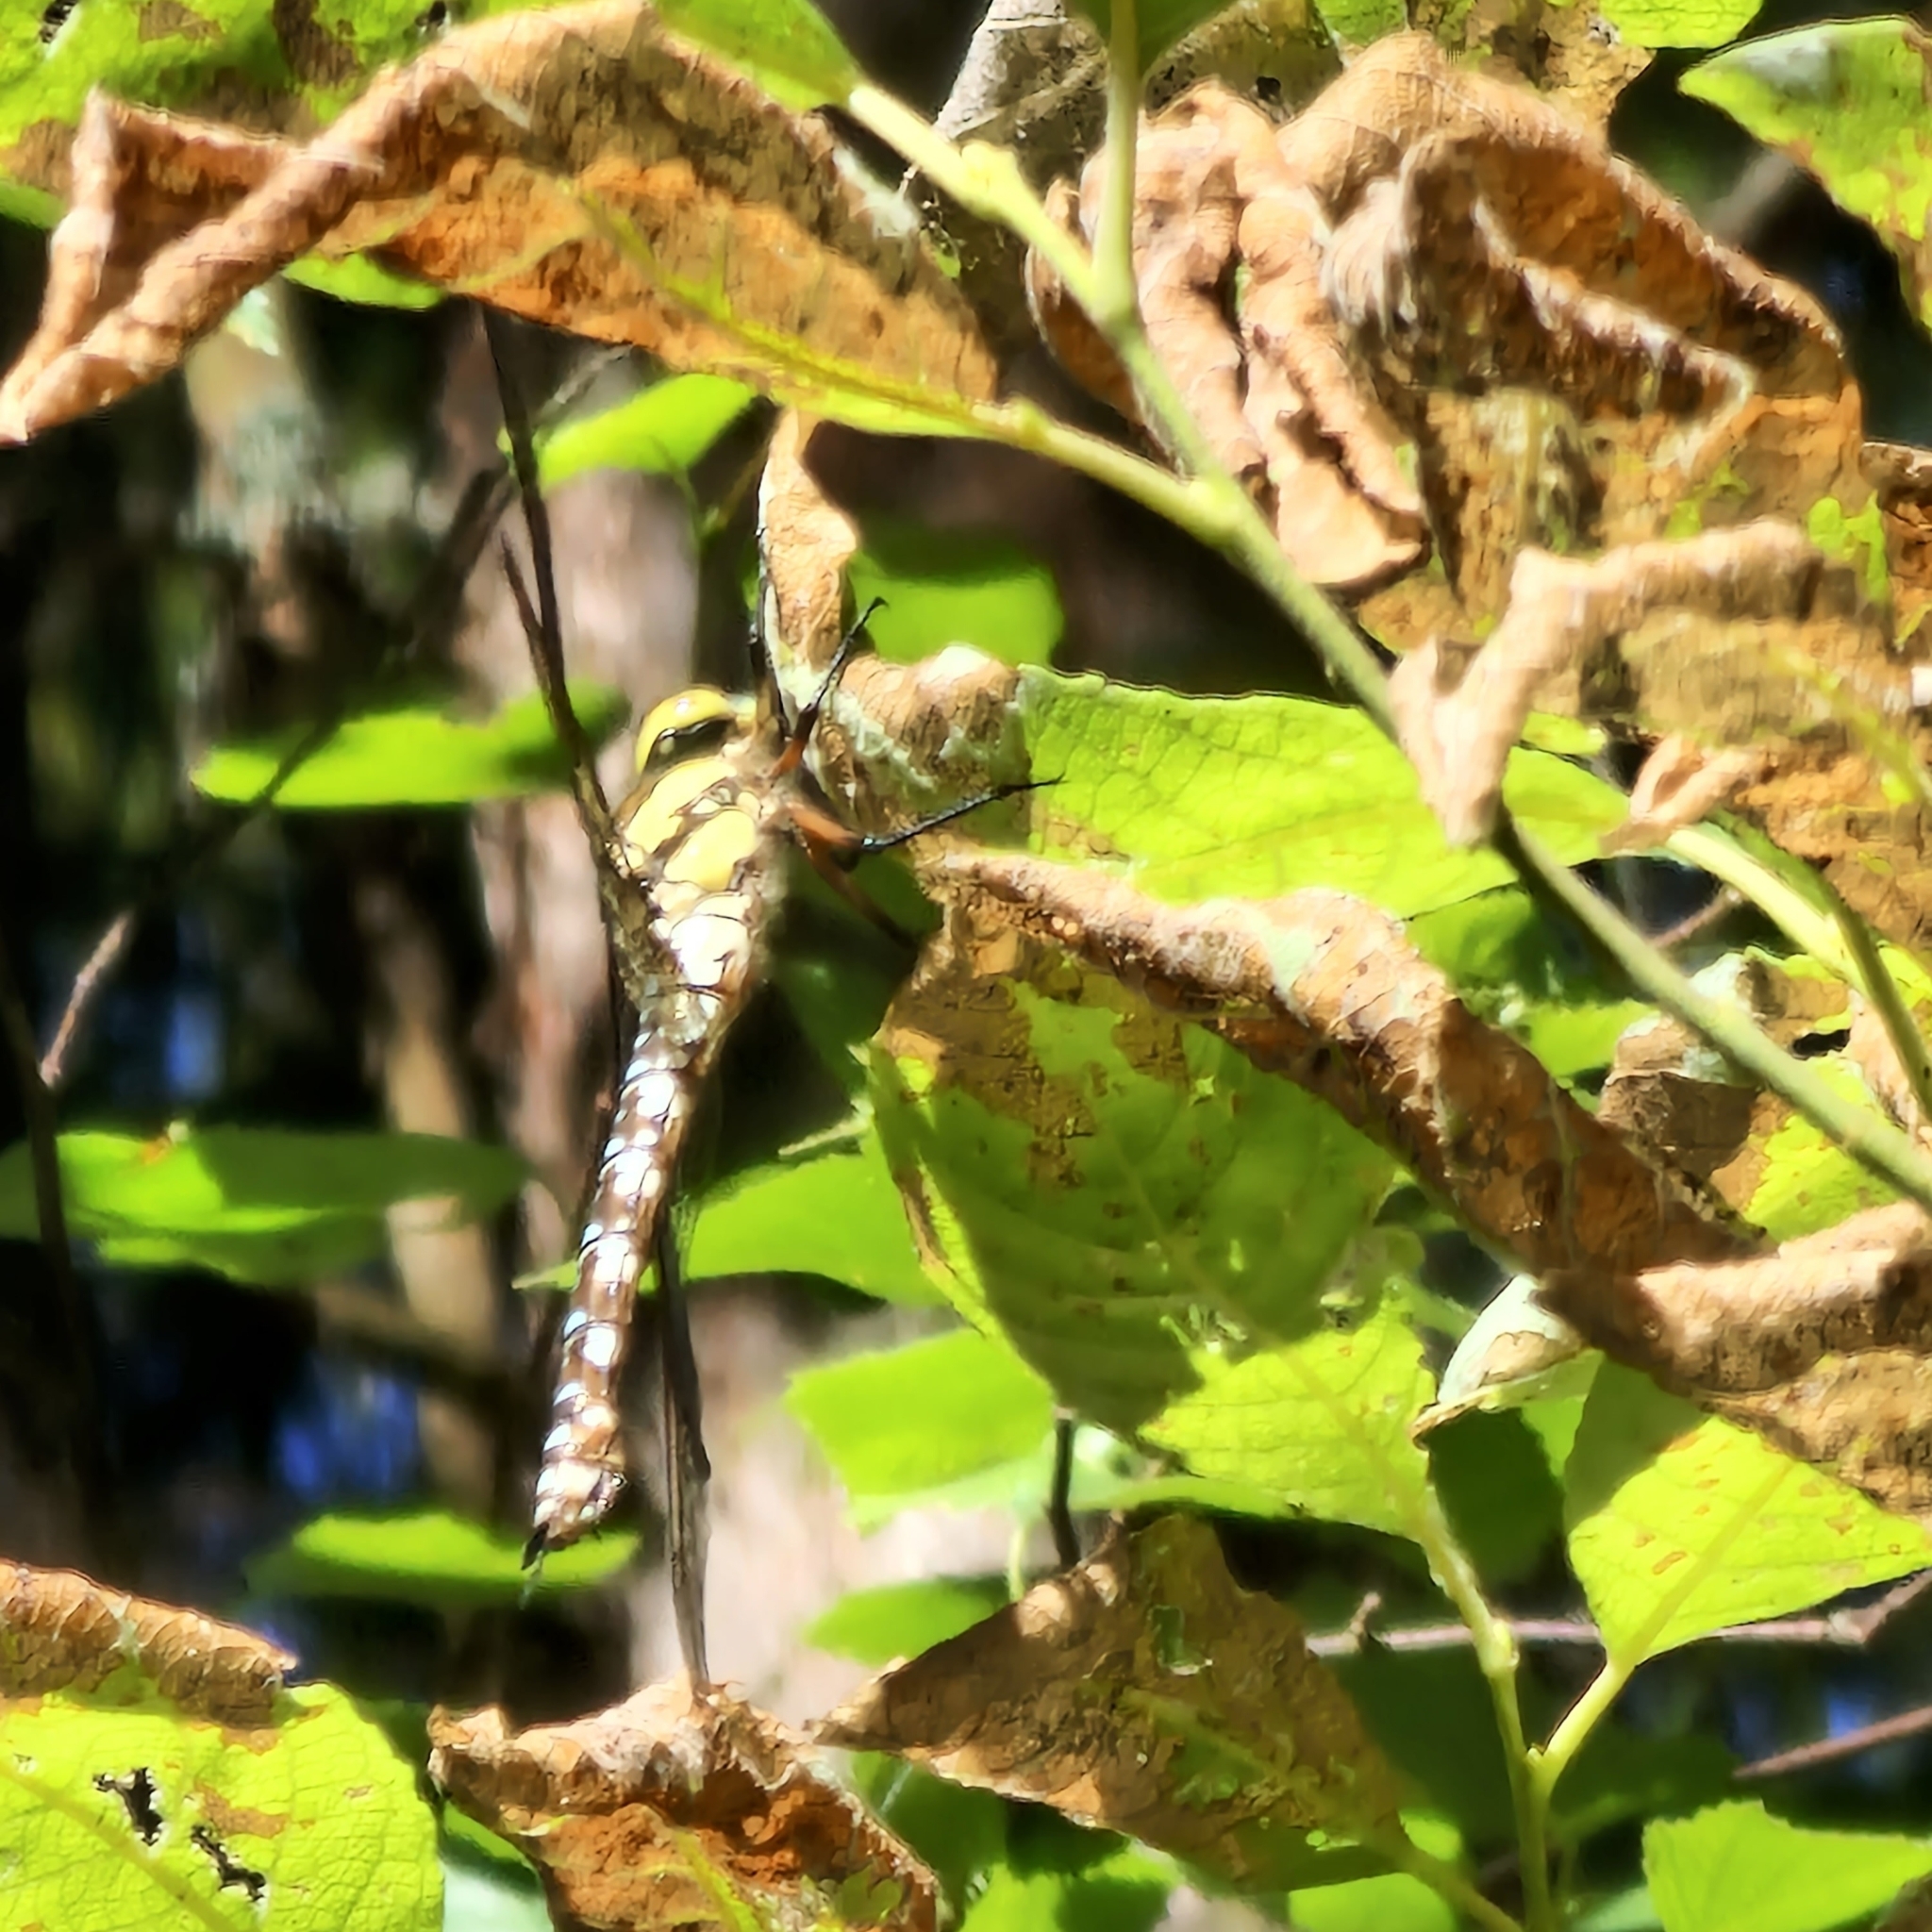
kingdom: Animalia
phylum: Arthropoda
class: Insecta
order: Odonata
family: Aeshnidae
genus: Aeshna
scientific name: Aeshna cyanea
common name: Southern hawker
